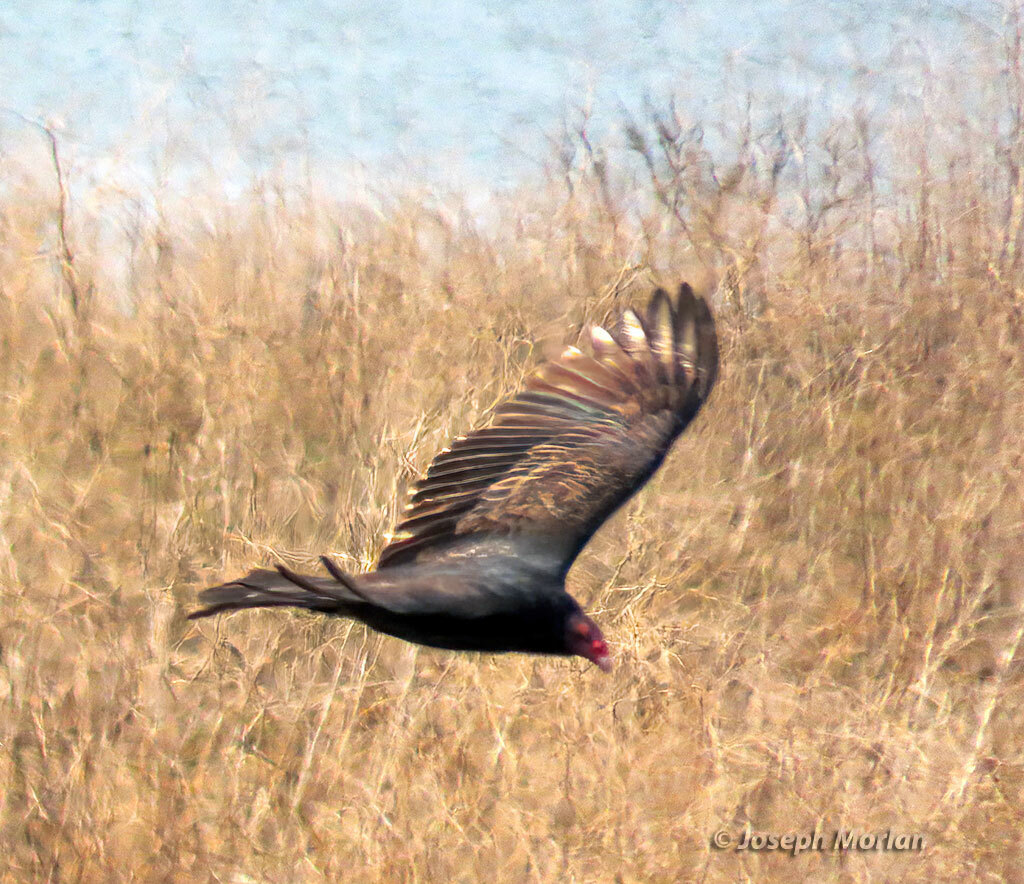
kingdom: Animalia
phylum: Chordata
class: Aves
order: Accipitriformes
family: Cathartidae
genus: Cathartes
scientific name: Cathartes aura
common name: Turkey vulture
